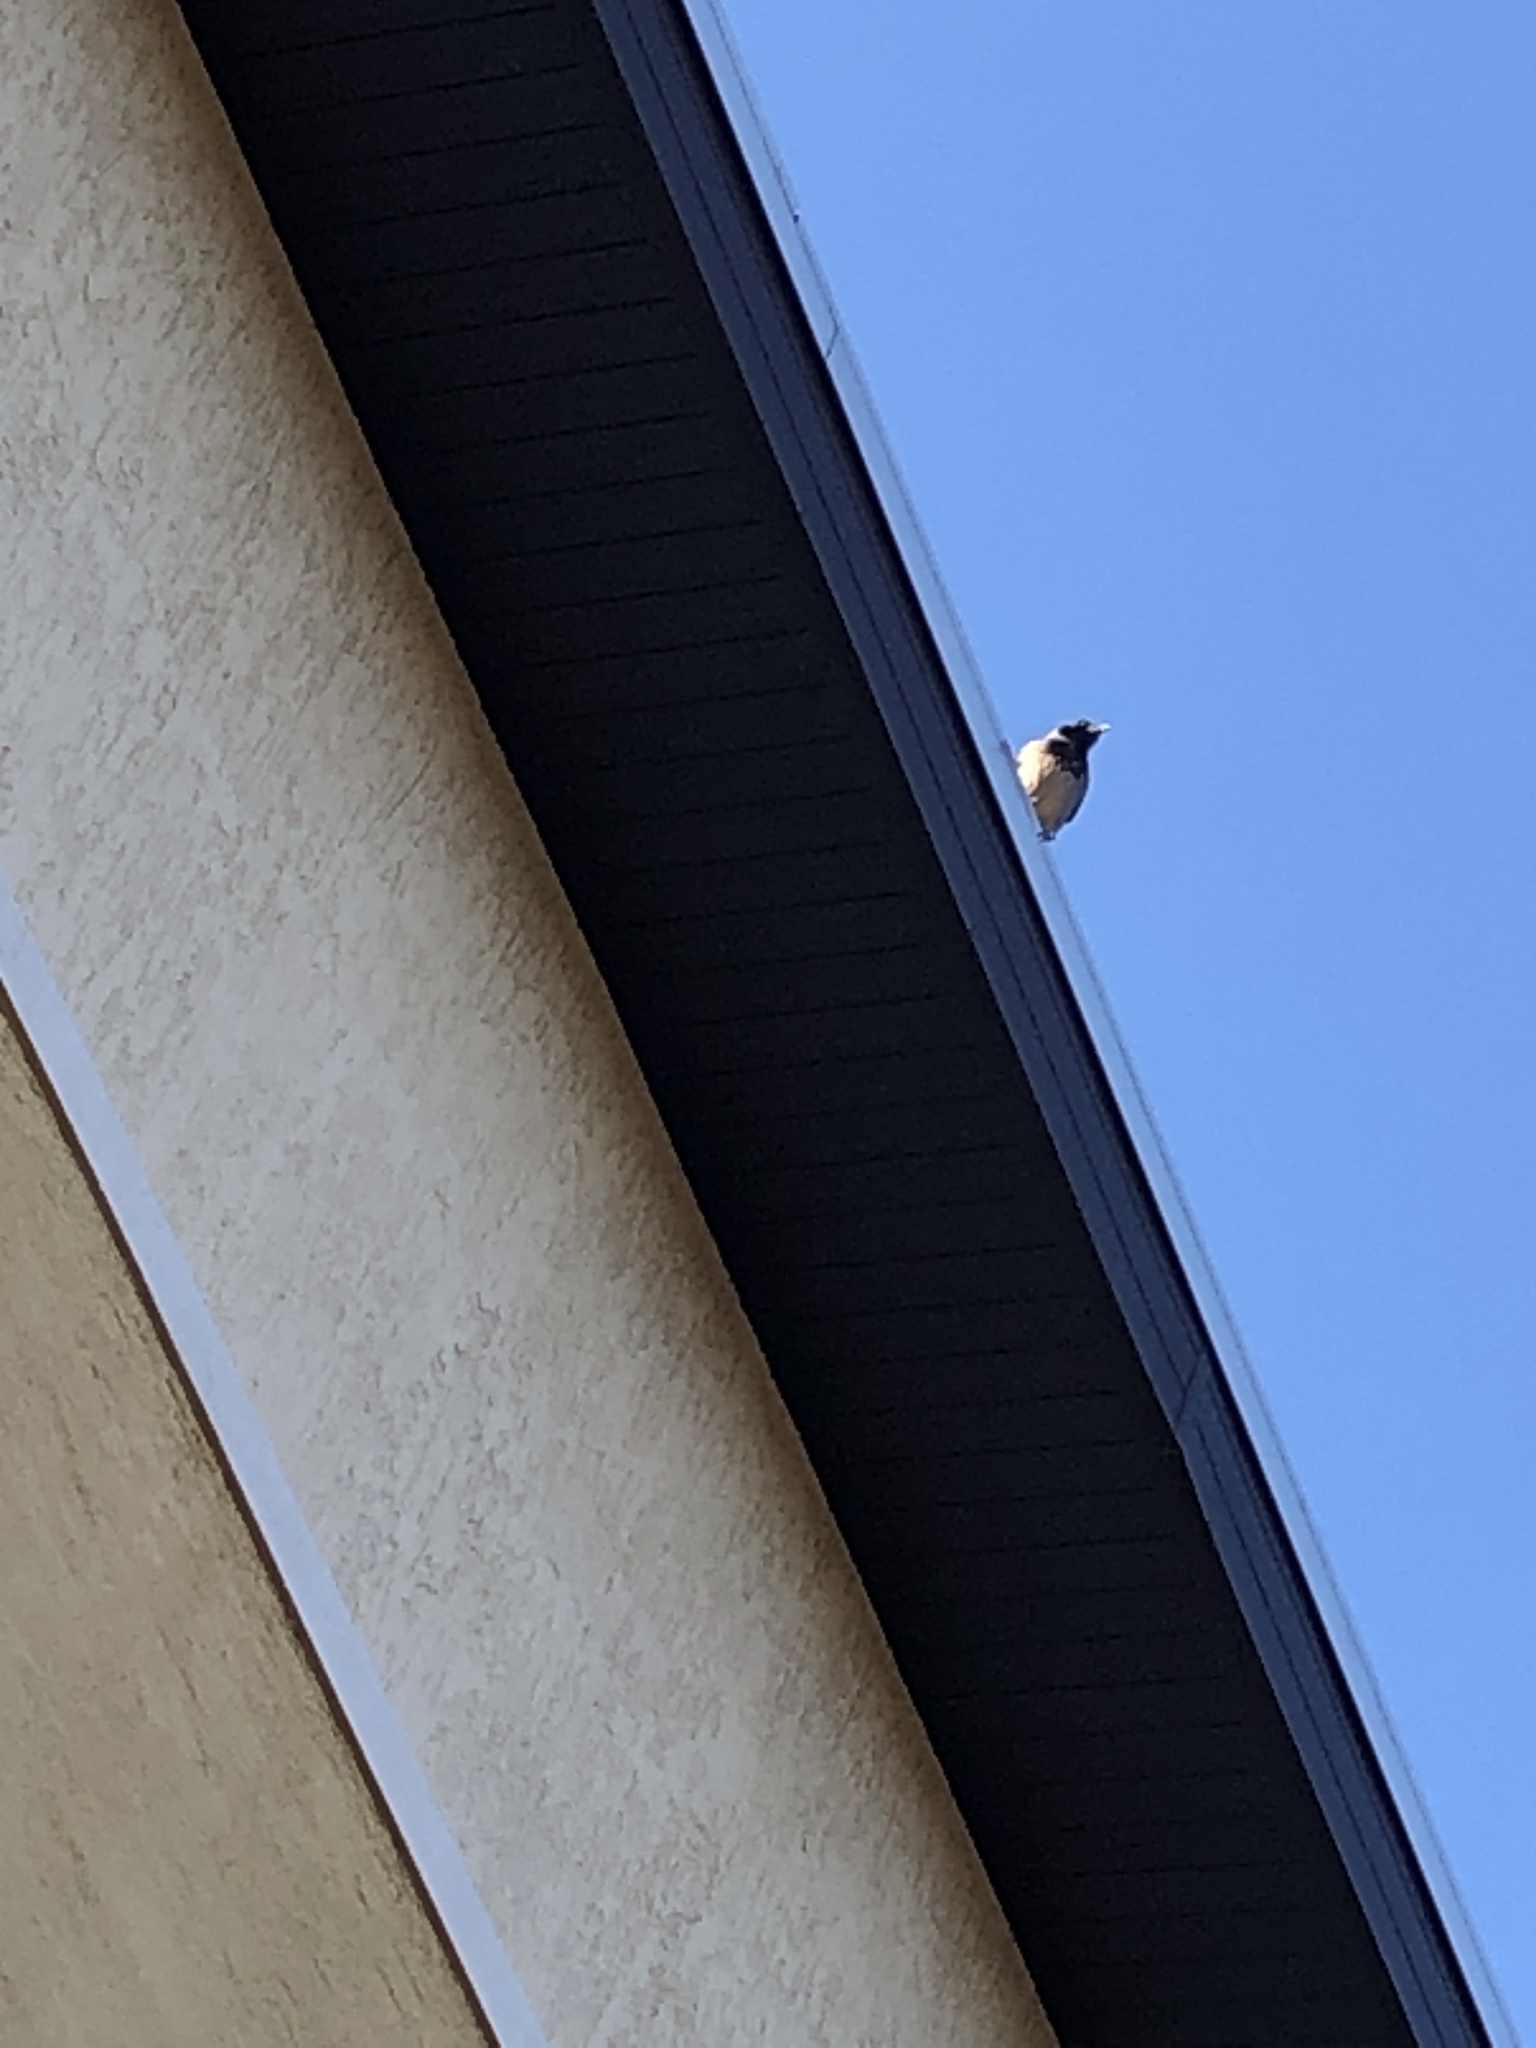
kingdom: Animalia
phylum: Chordata
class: Aves
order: Passeriformes
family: Corvidae
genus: Corvus
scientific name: Corvus cornix
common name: Hooded crow
